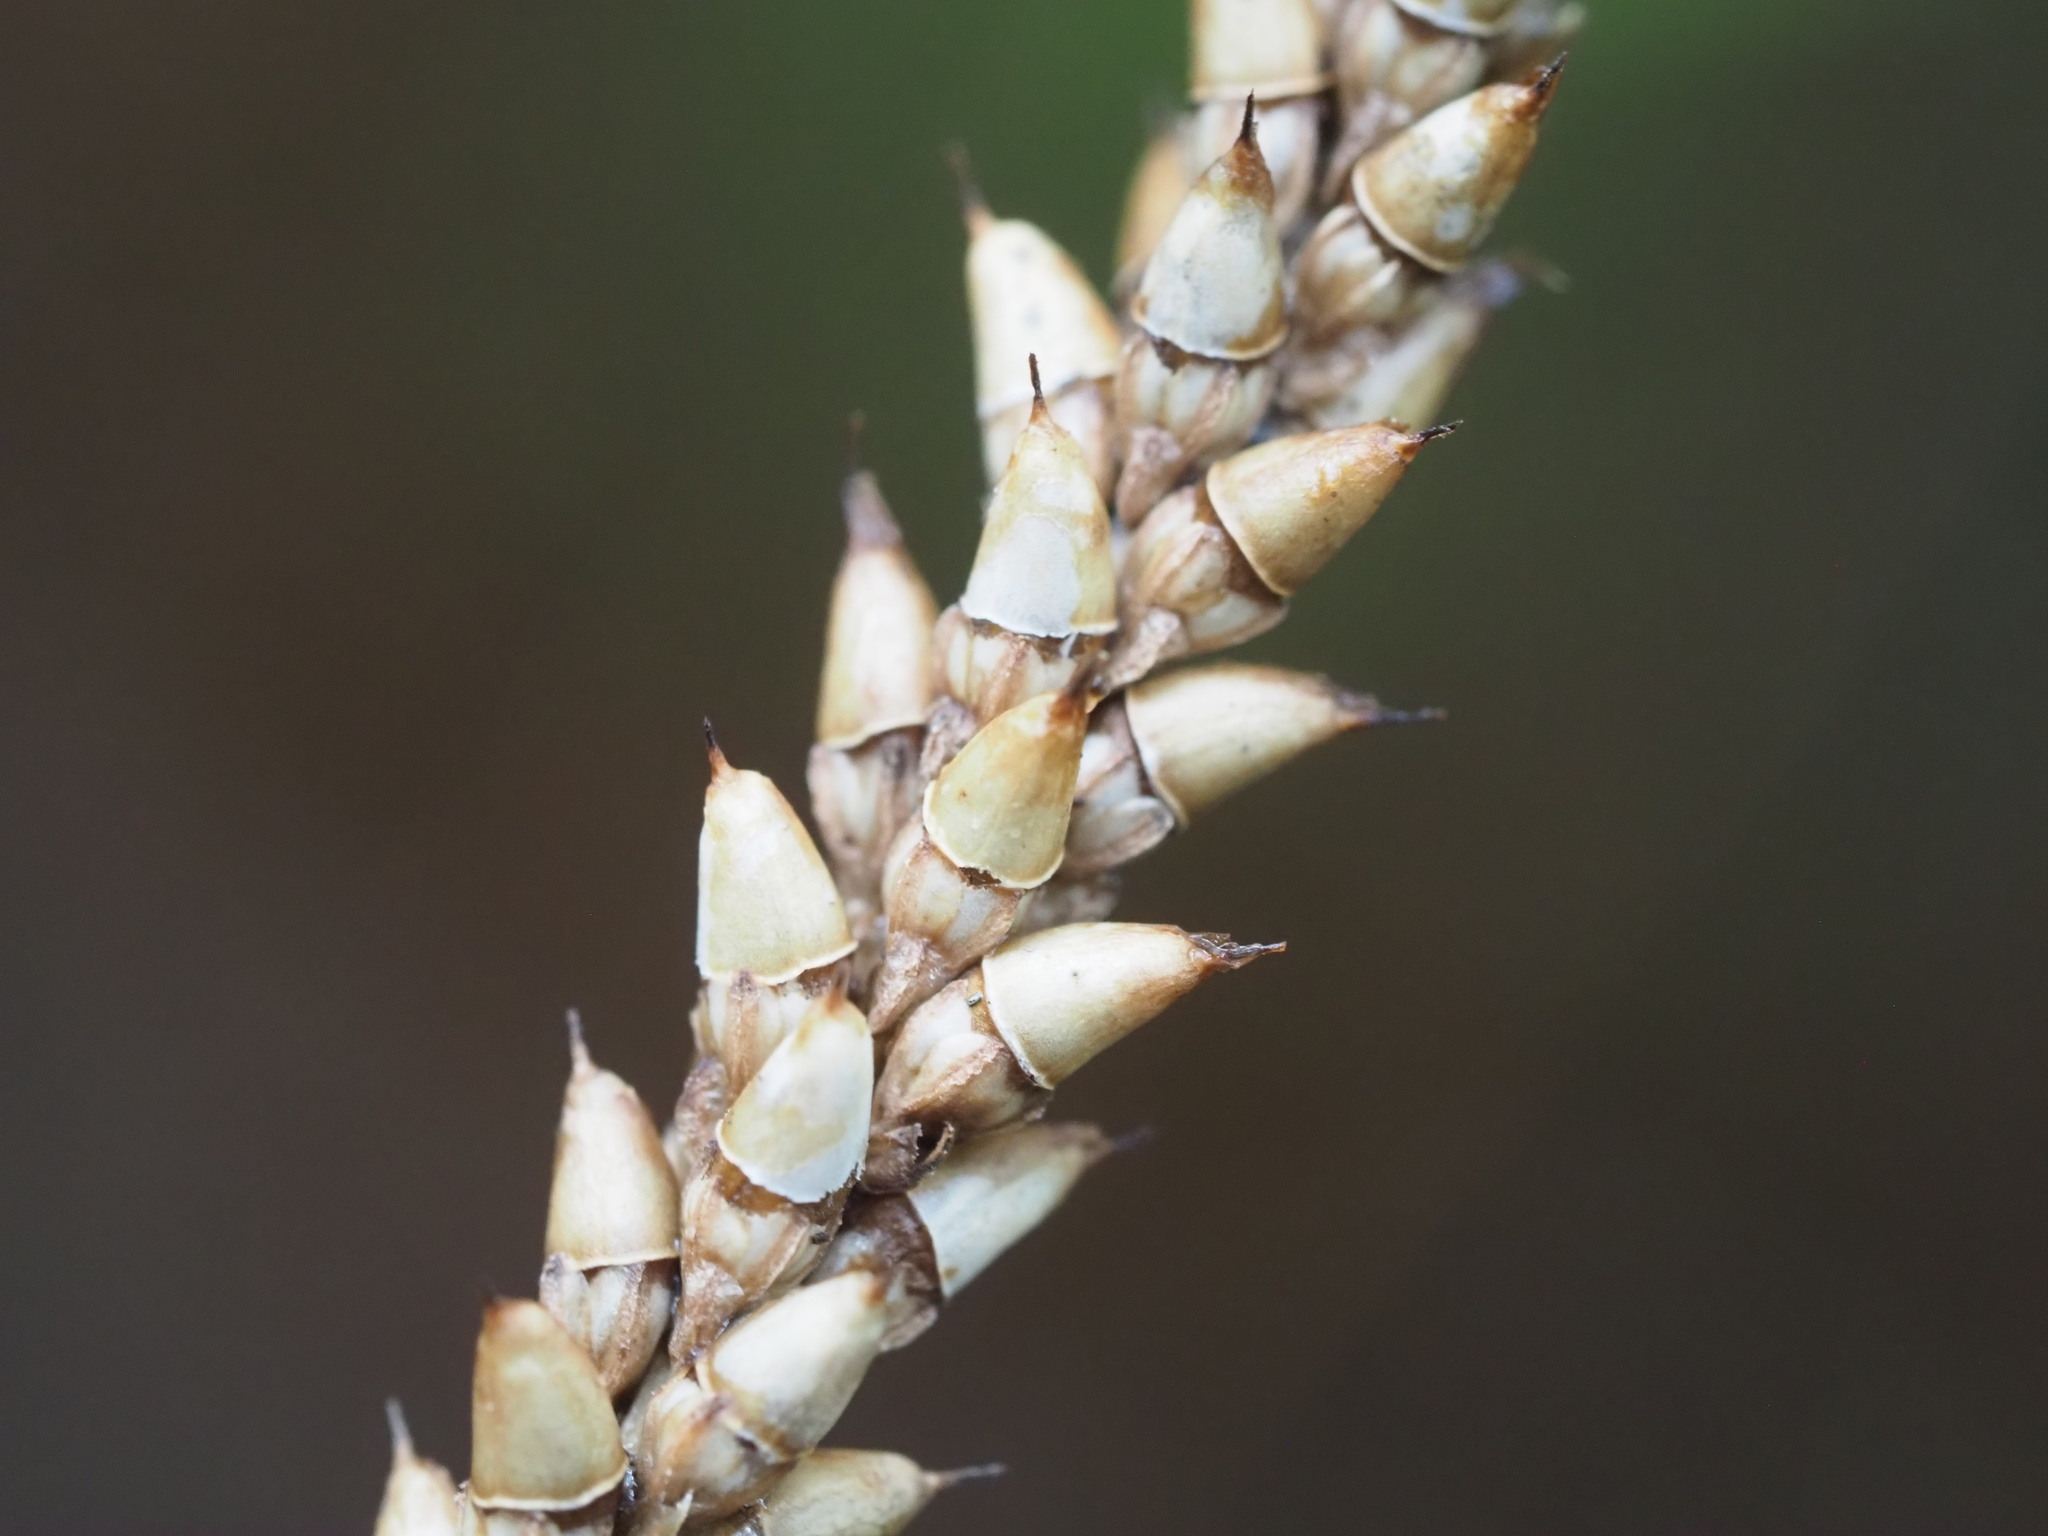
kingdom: Plantae
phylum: Tracheophyta
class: Magnoliopsida
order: Lamiales
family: Plantaginaceae
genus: Plantago
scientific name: Plantago rugelii
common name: American plantain
